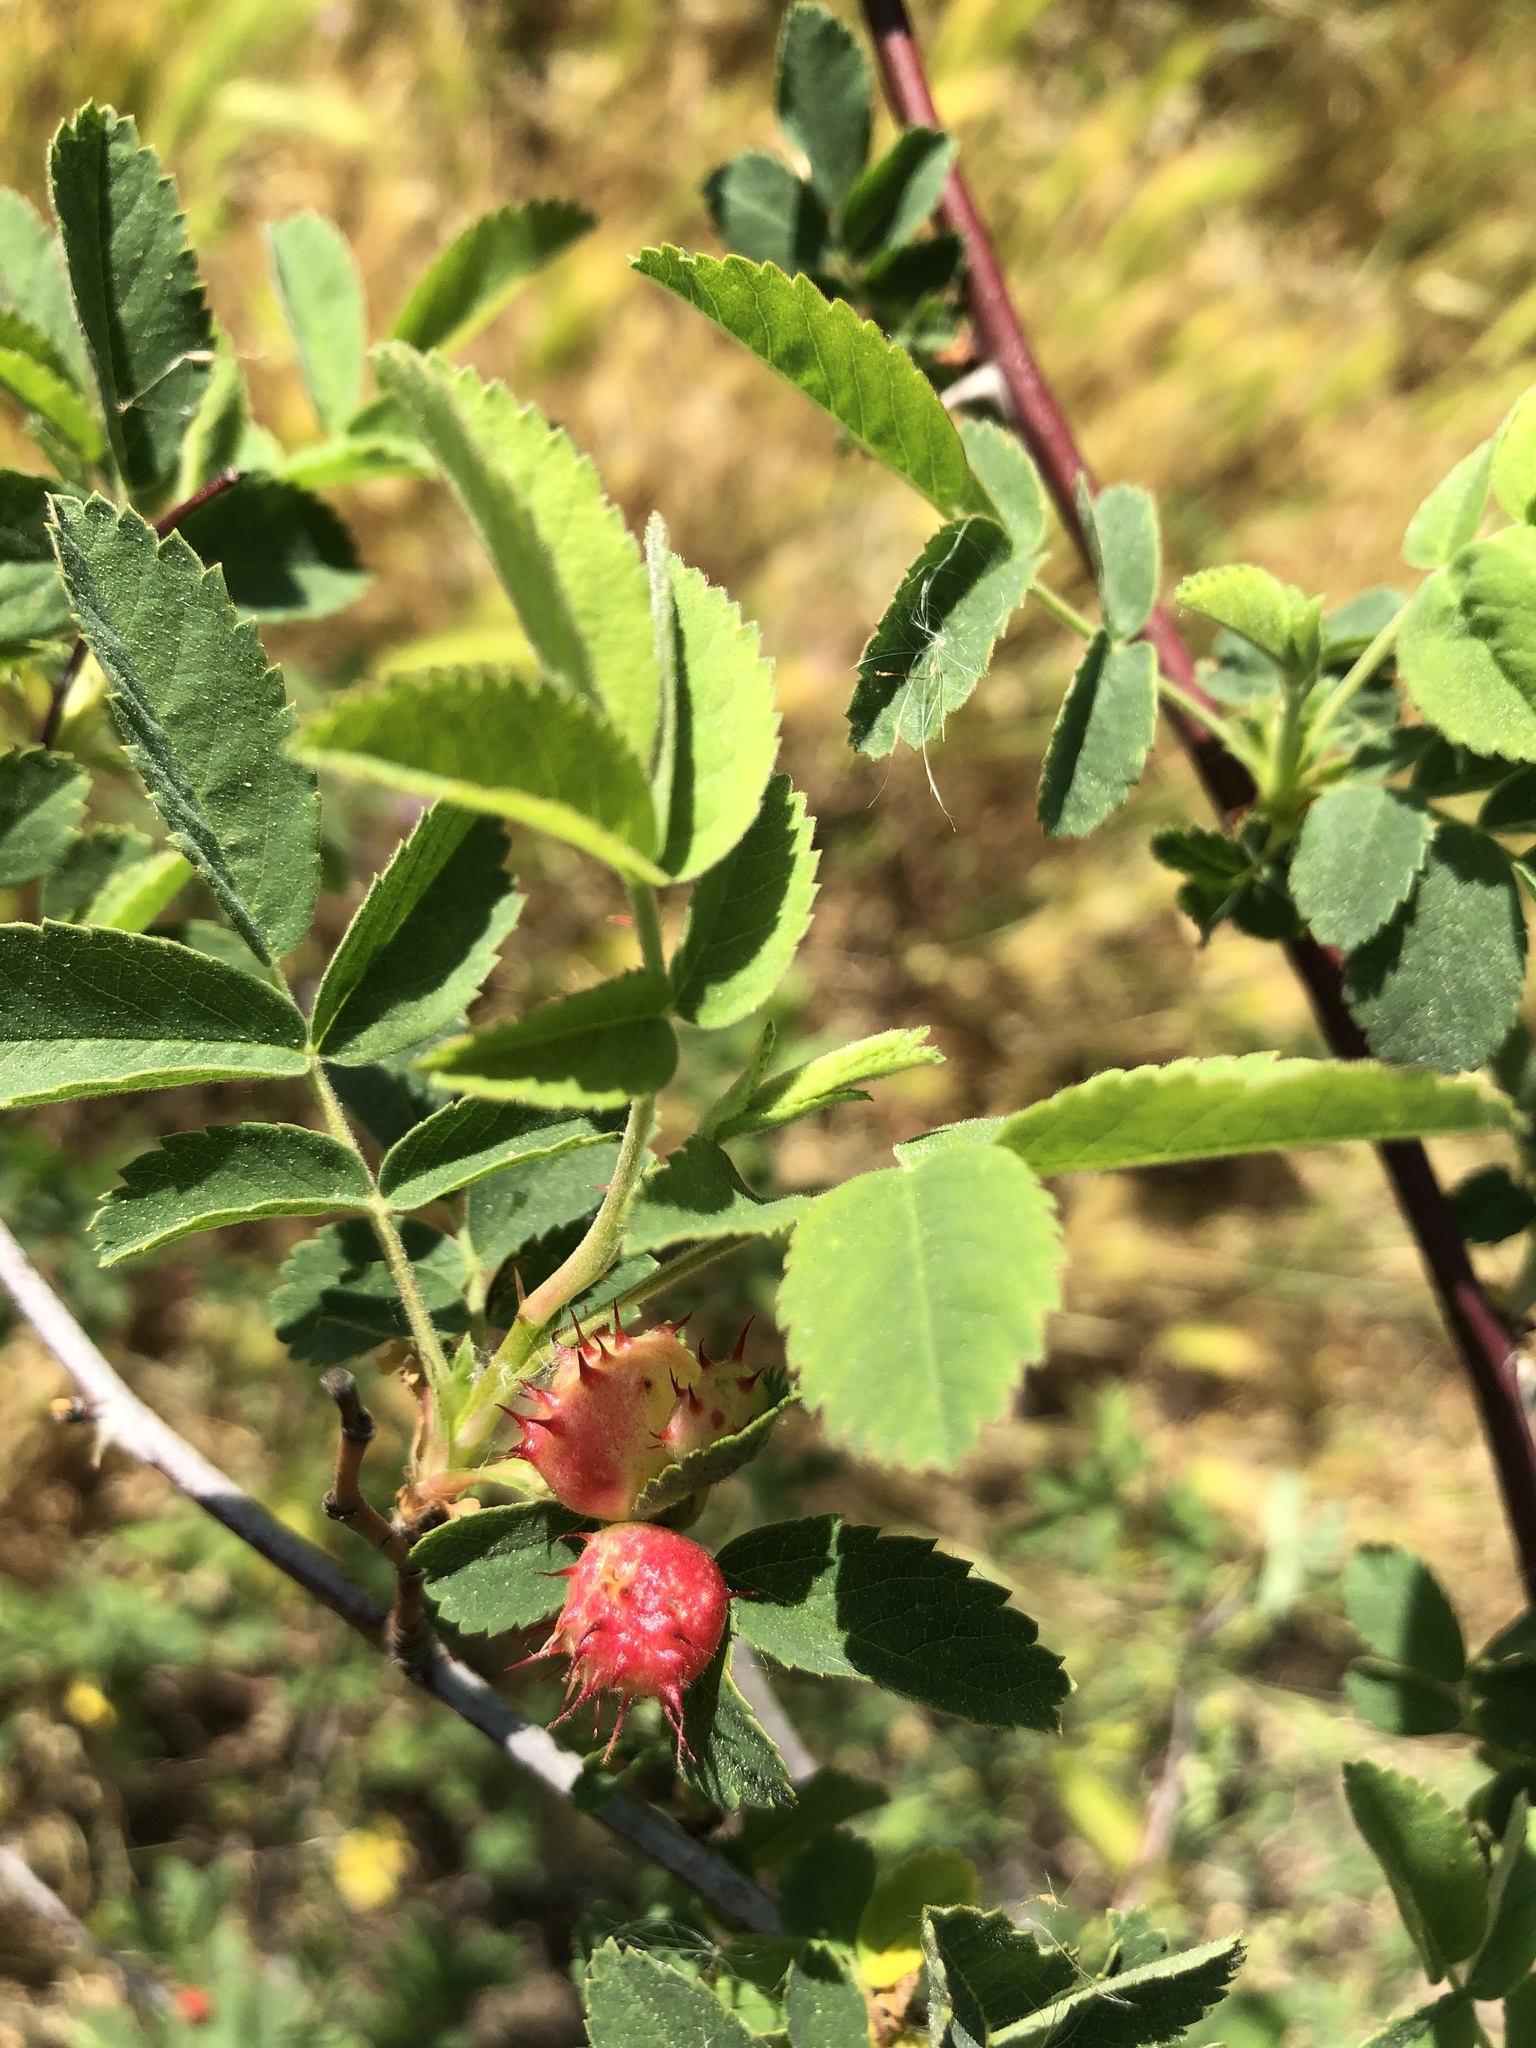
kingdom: Animalia
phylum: Arthropoda
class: Insecta
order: Hymenoptera
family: Cynipidae
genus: Diplolepis
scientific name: Diplolepis polita
